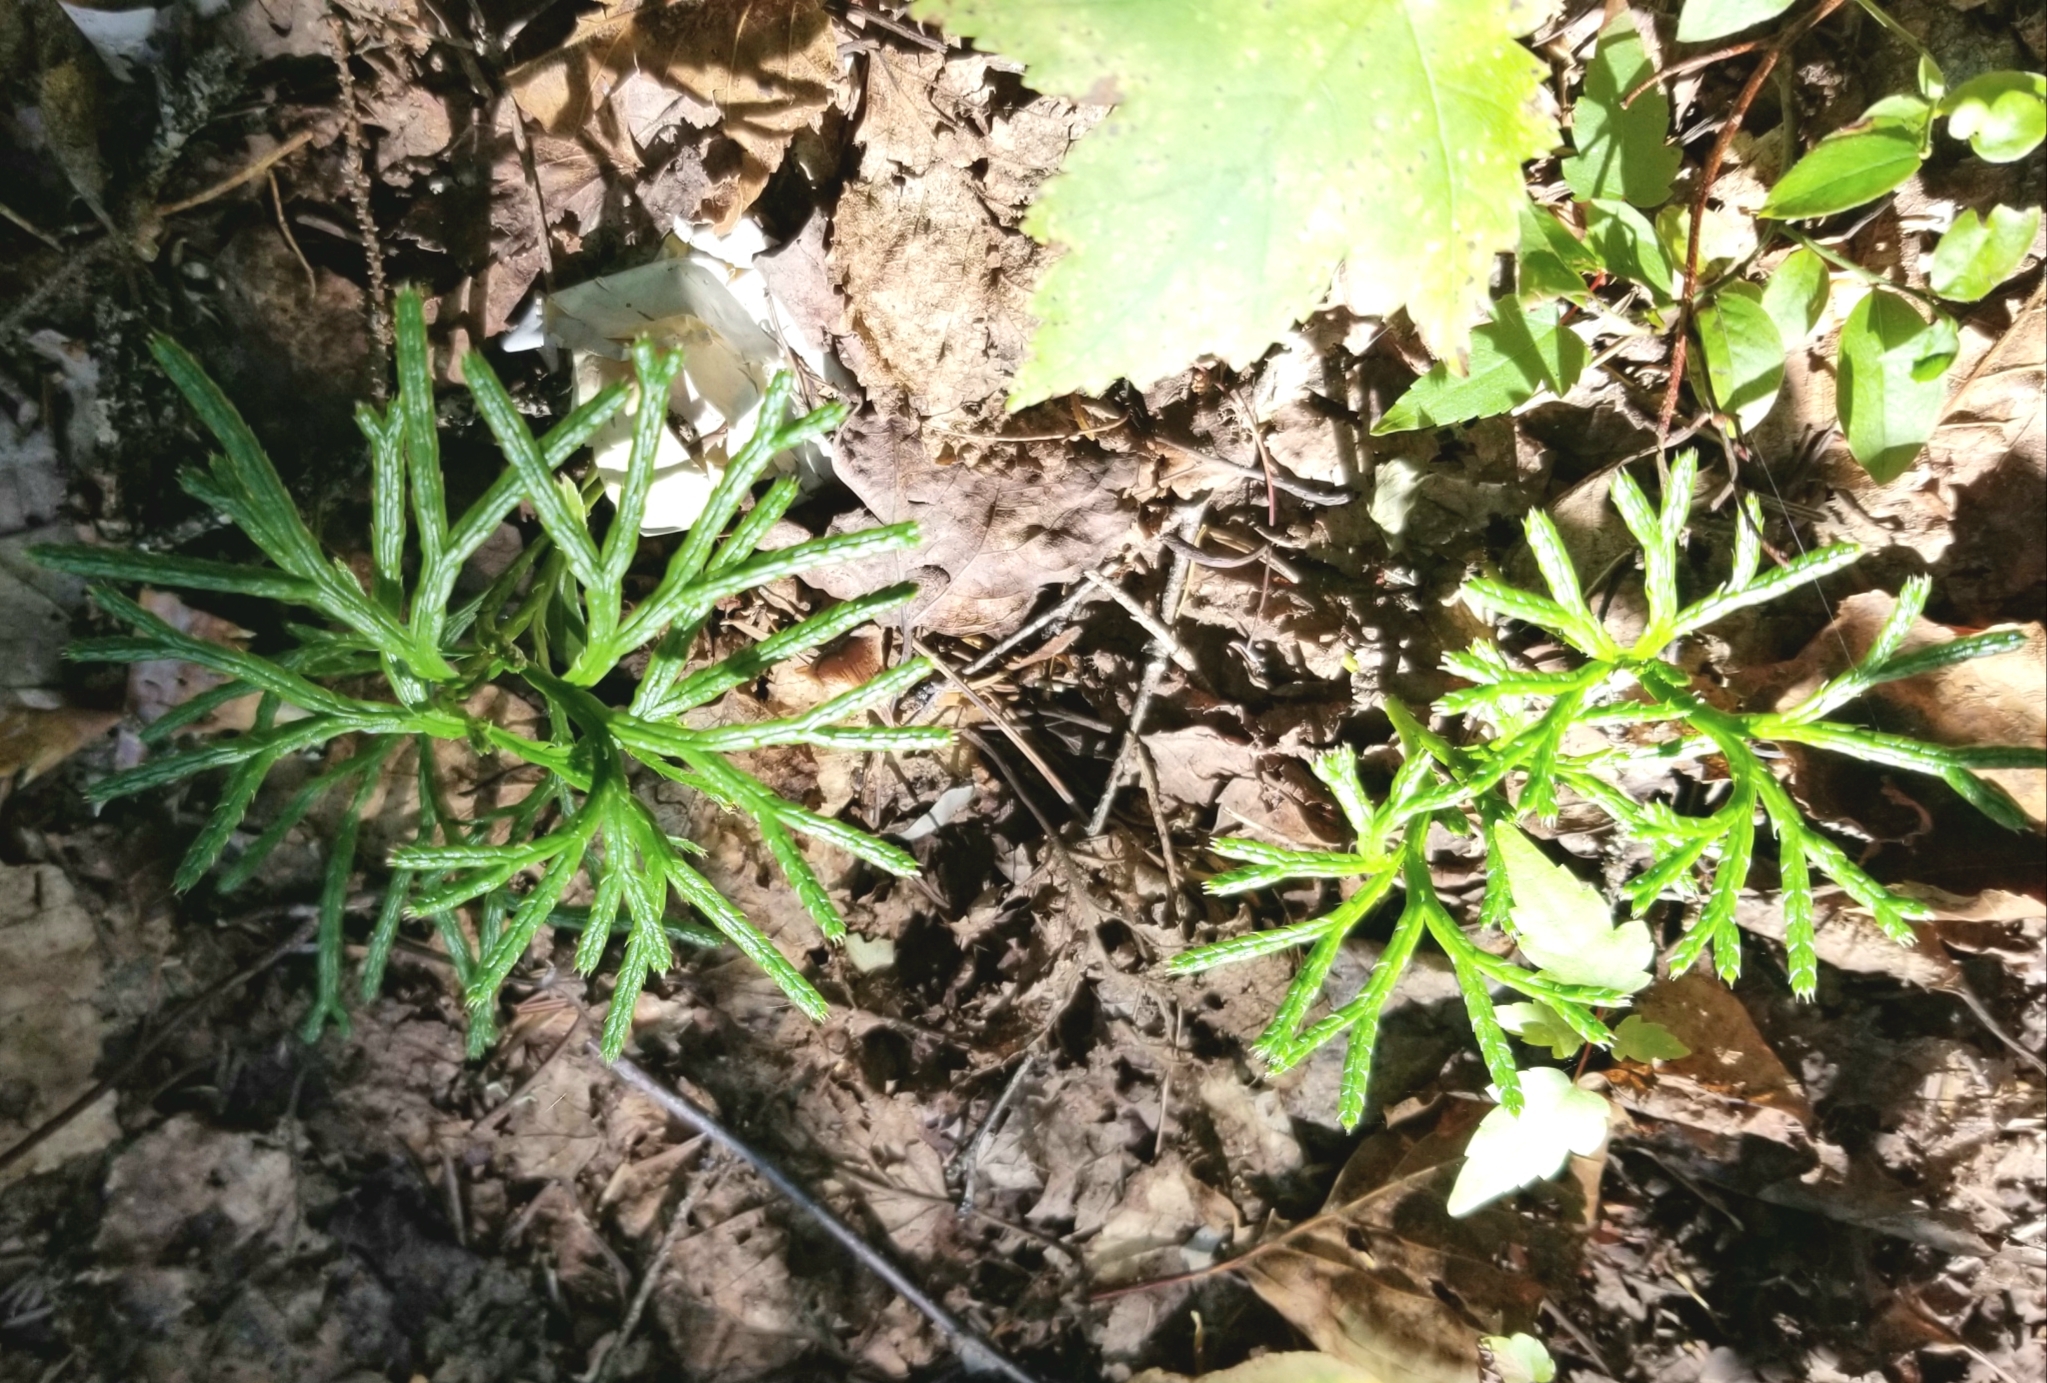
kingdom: Plantae
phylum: Tracheophyta
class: Lycopodiopsida
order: Lycopodiales
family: Lycopodiaceae
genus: Diphasiastrum
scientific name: Diphasiastrum complanatum
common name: Northern running-pine
